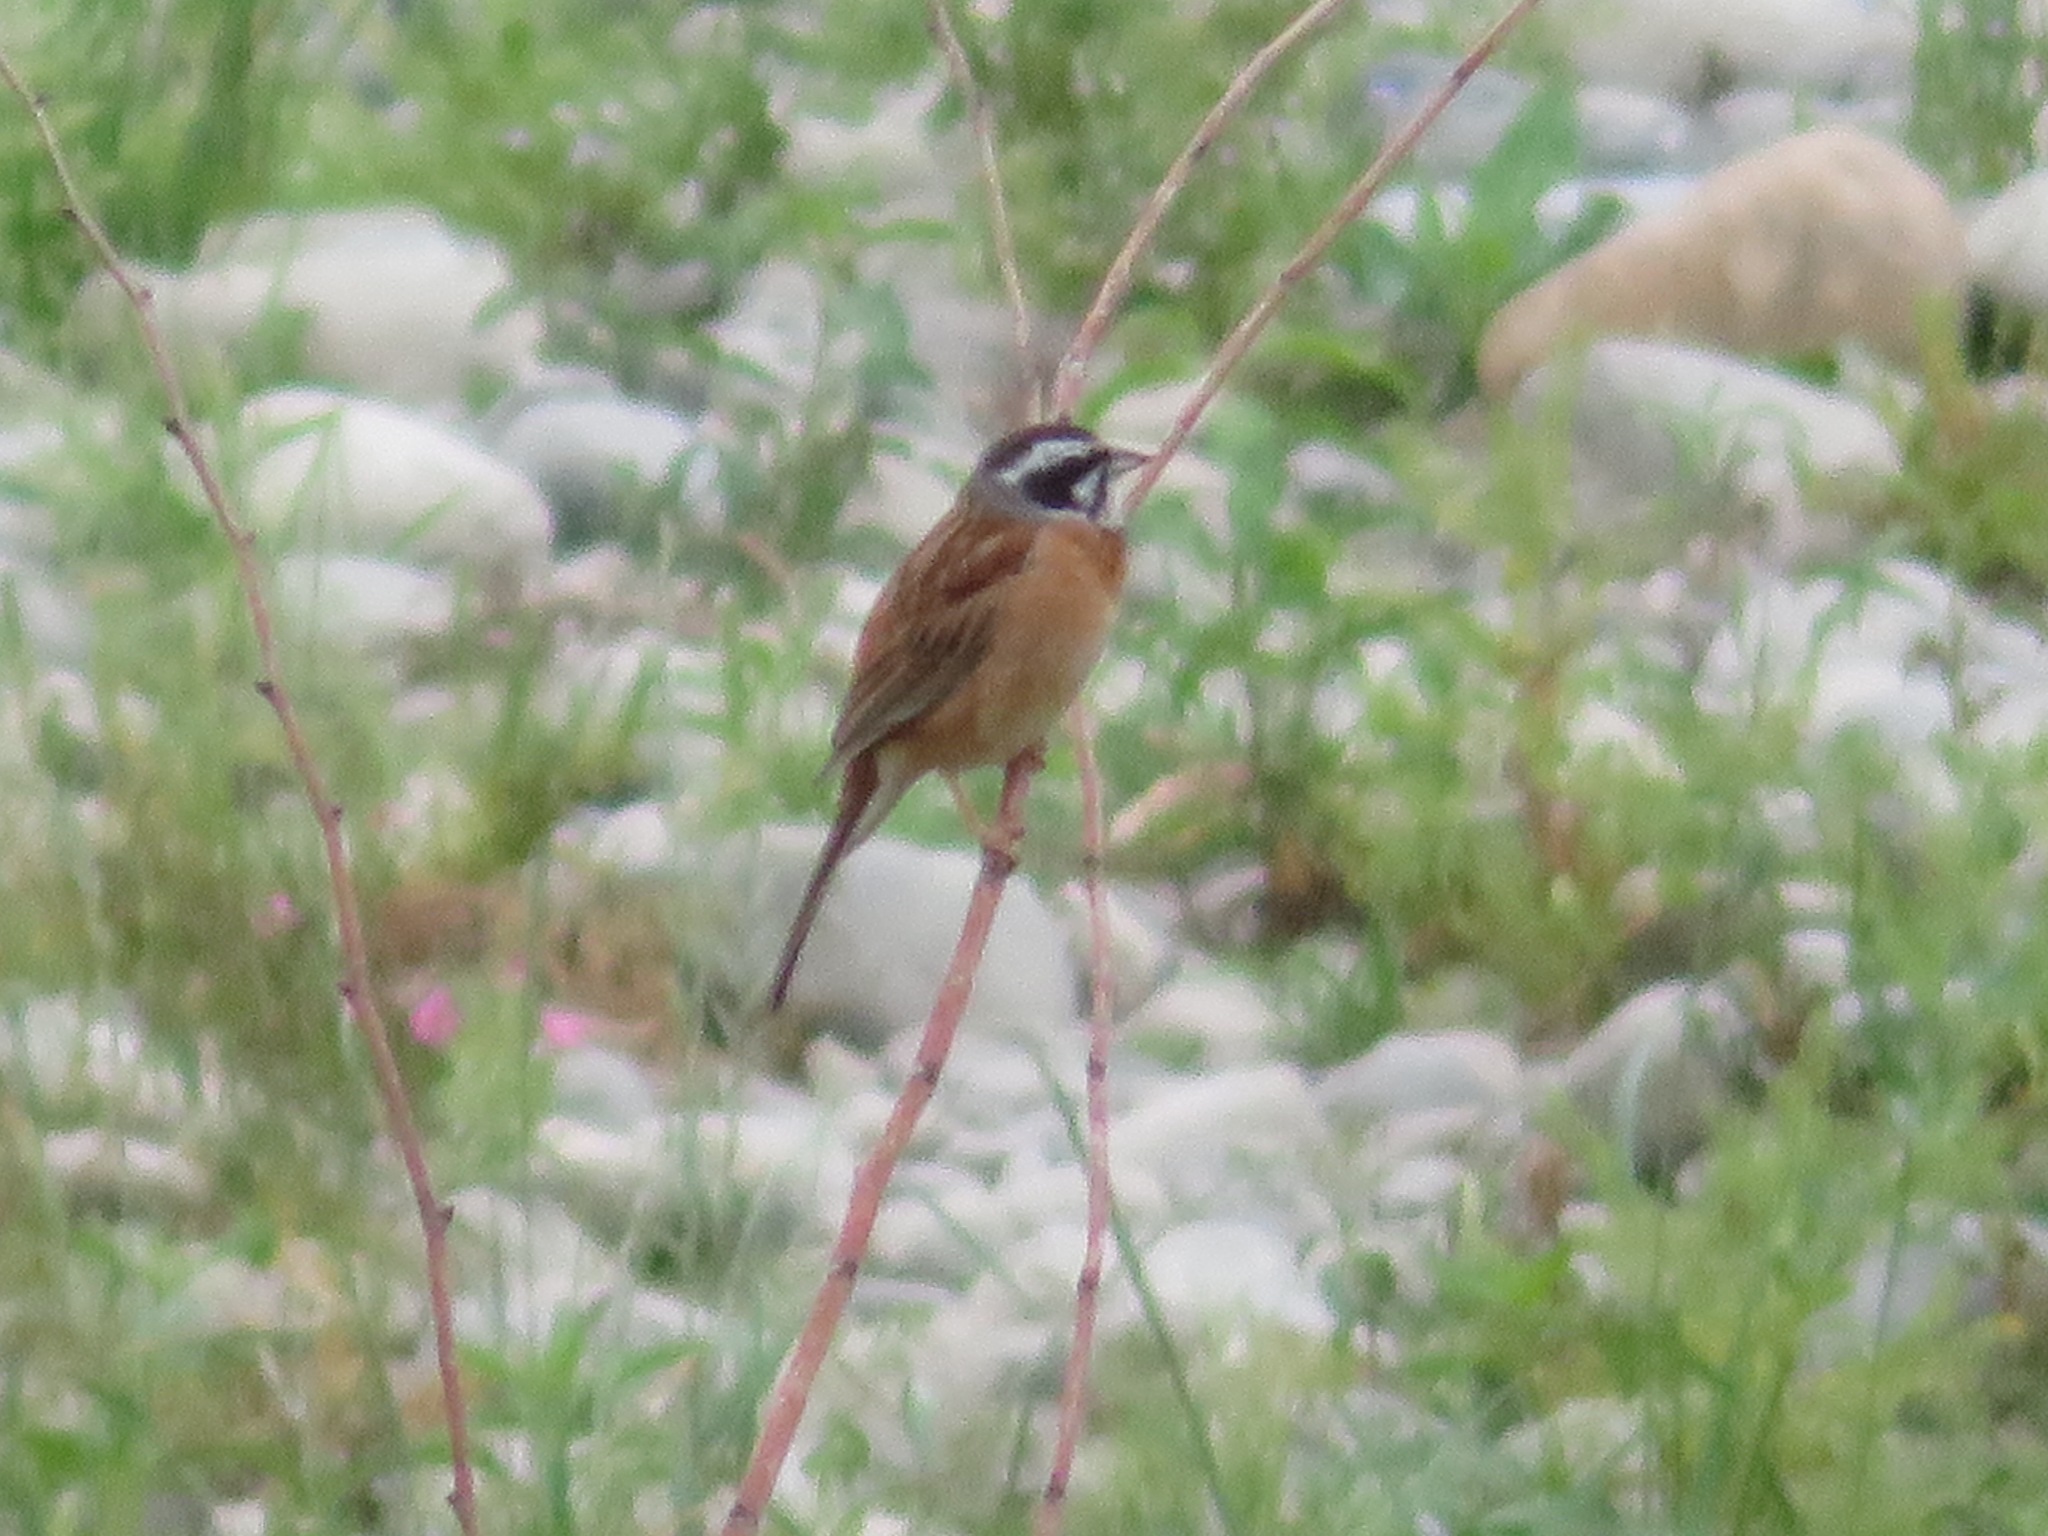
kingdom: Animalia
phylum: Chordata
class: Aves
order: Passeriformes
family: Emberizidae
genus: Emberiza
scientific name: Emberiza cioides
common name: Meadow bunting
